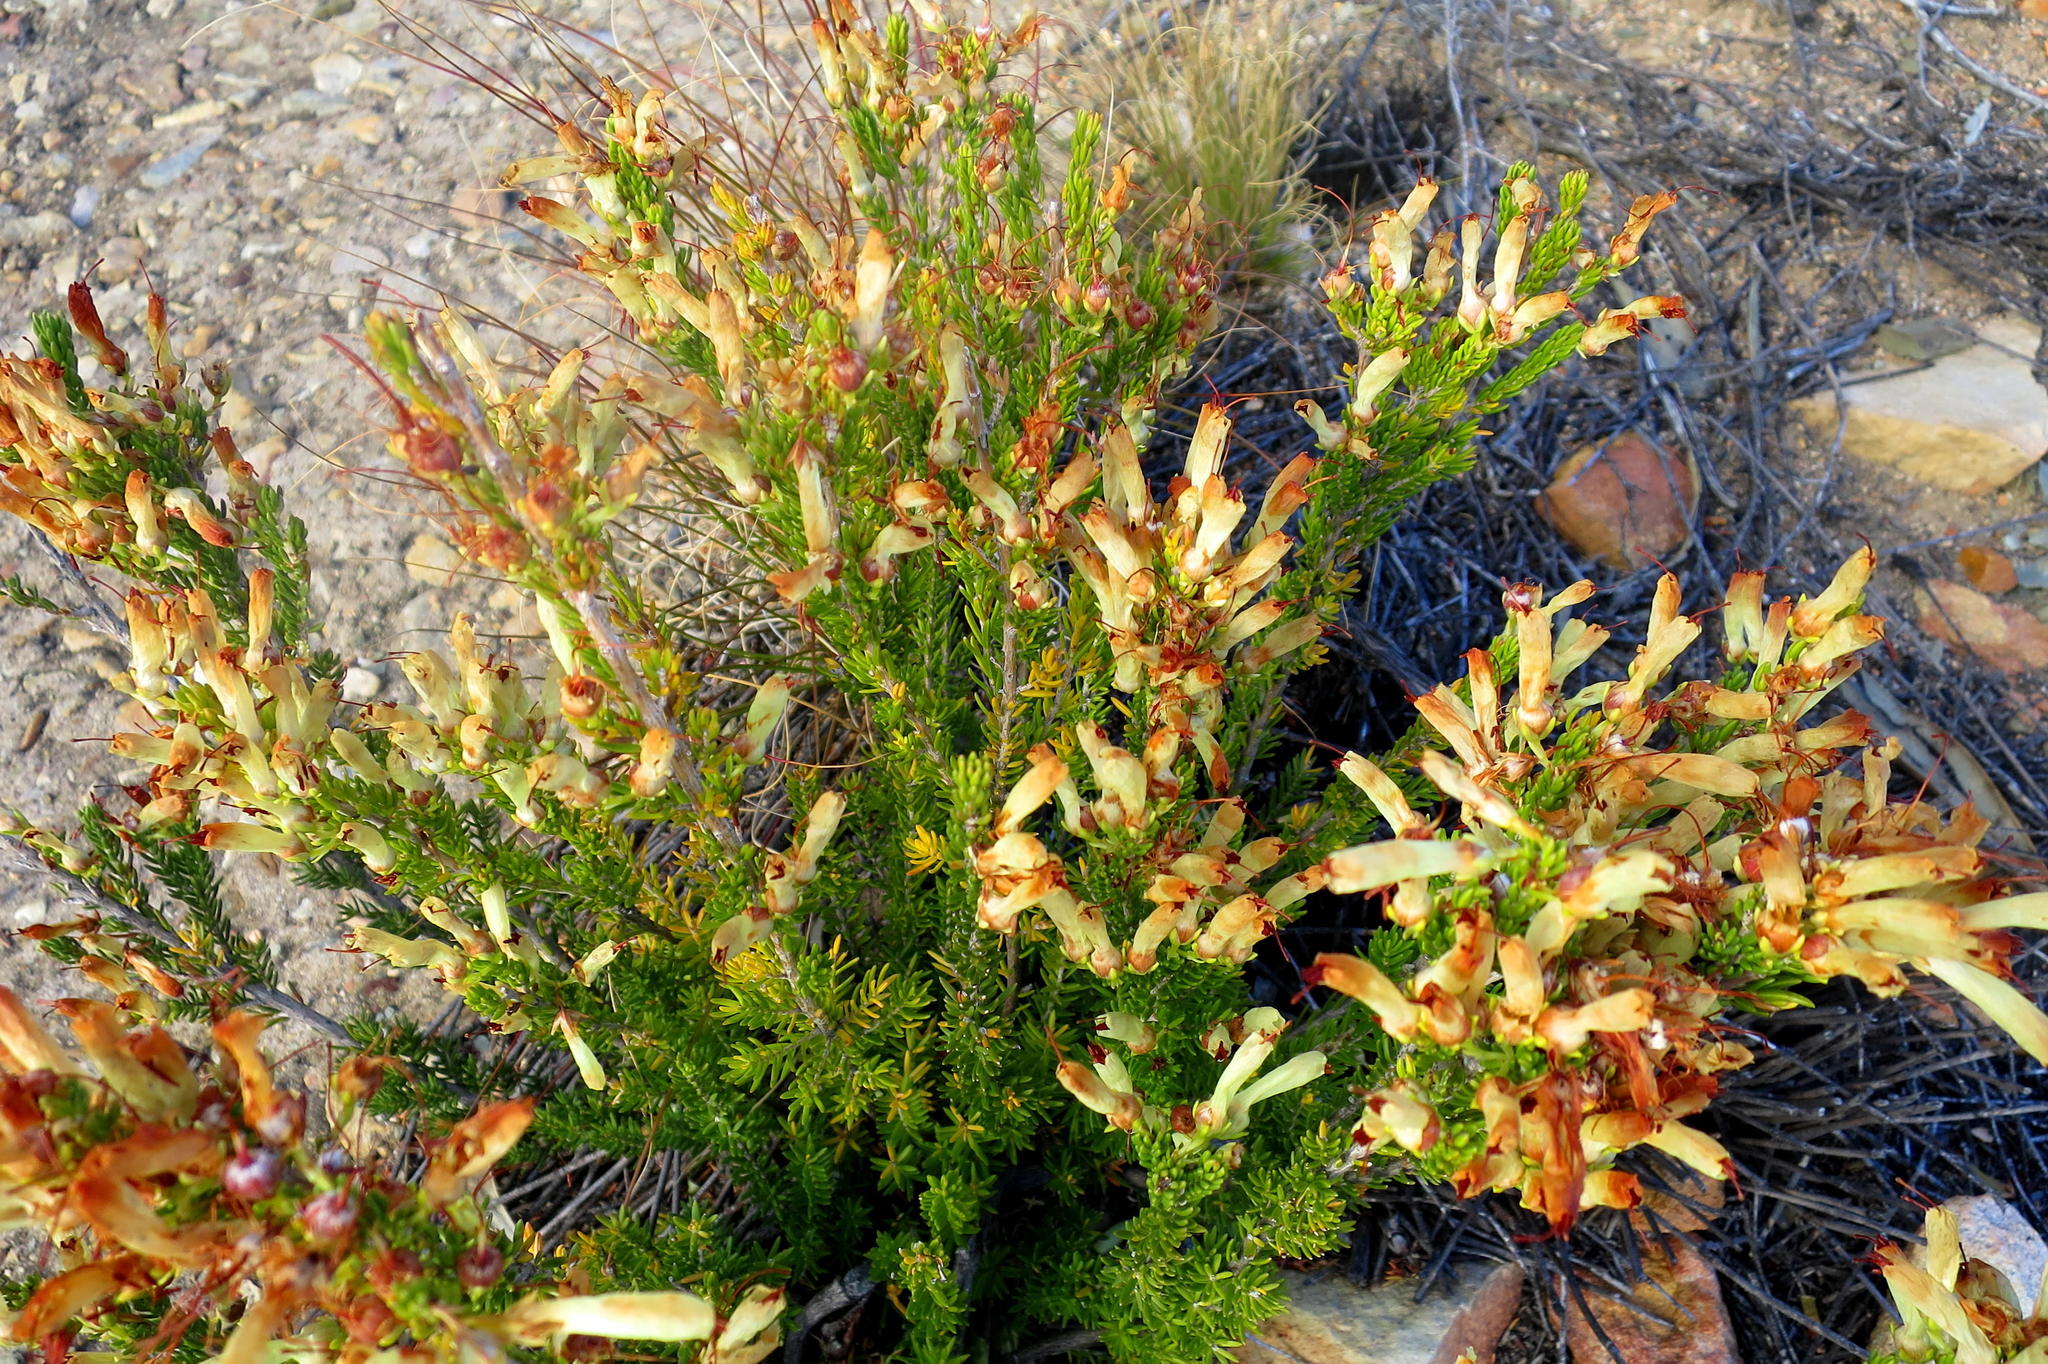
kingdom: Plantae
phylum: Tracheophyta
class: Magnoliopsida
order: Ericales
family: Ericaceae
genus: Erica
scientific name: Erica maximiliani
